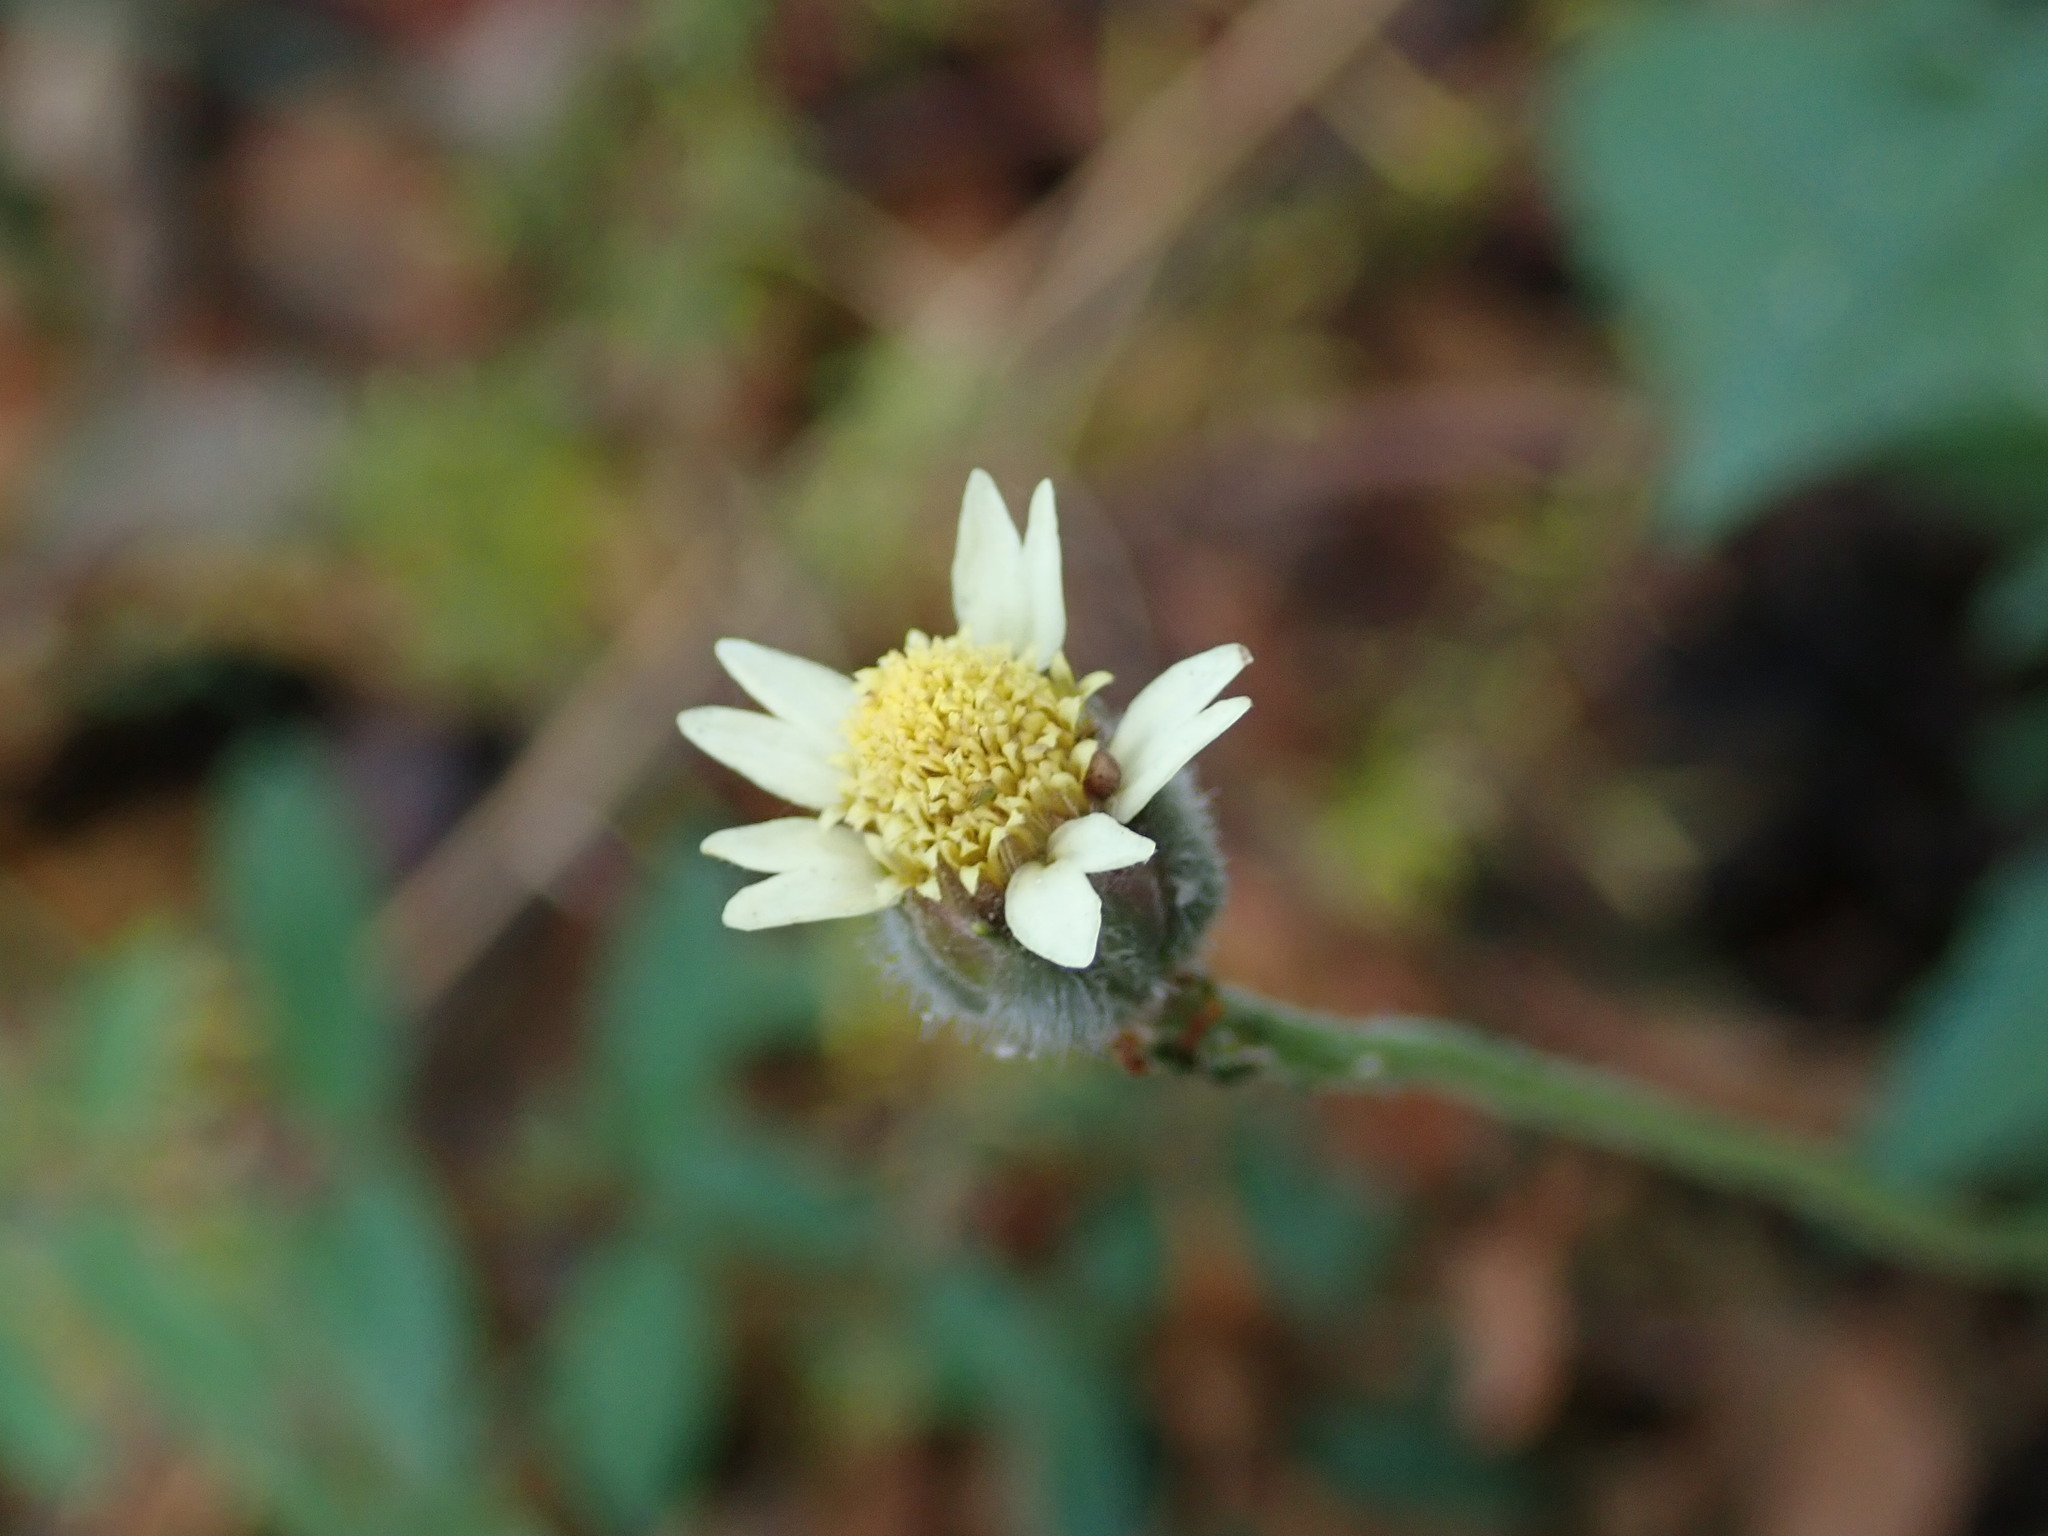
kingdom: Plantae
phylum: Tracheophyta
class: Magnoliopsida
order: Asterales
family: Asteraceae
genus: Tridax
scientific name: Tridax procumbens
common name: Coatbuttons
